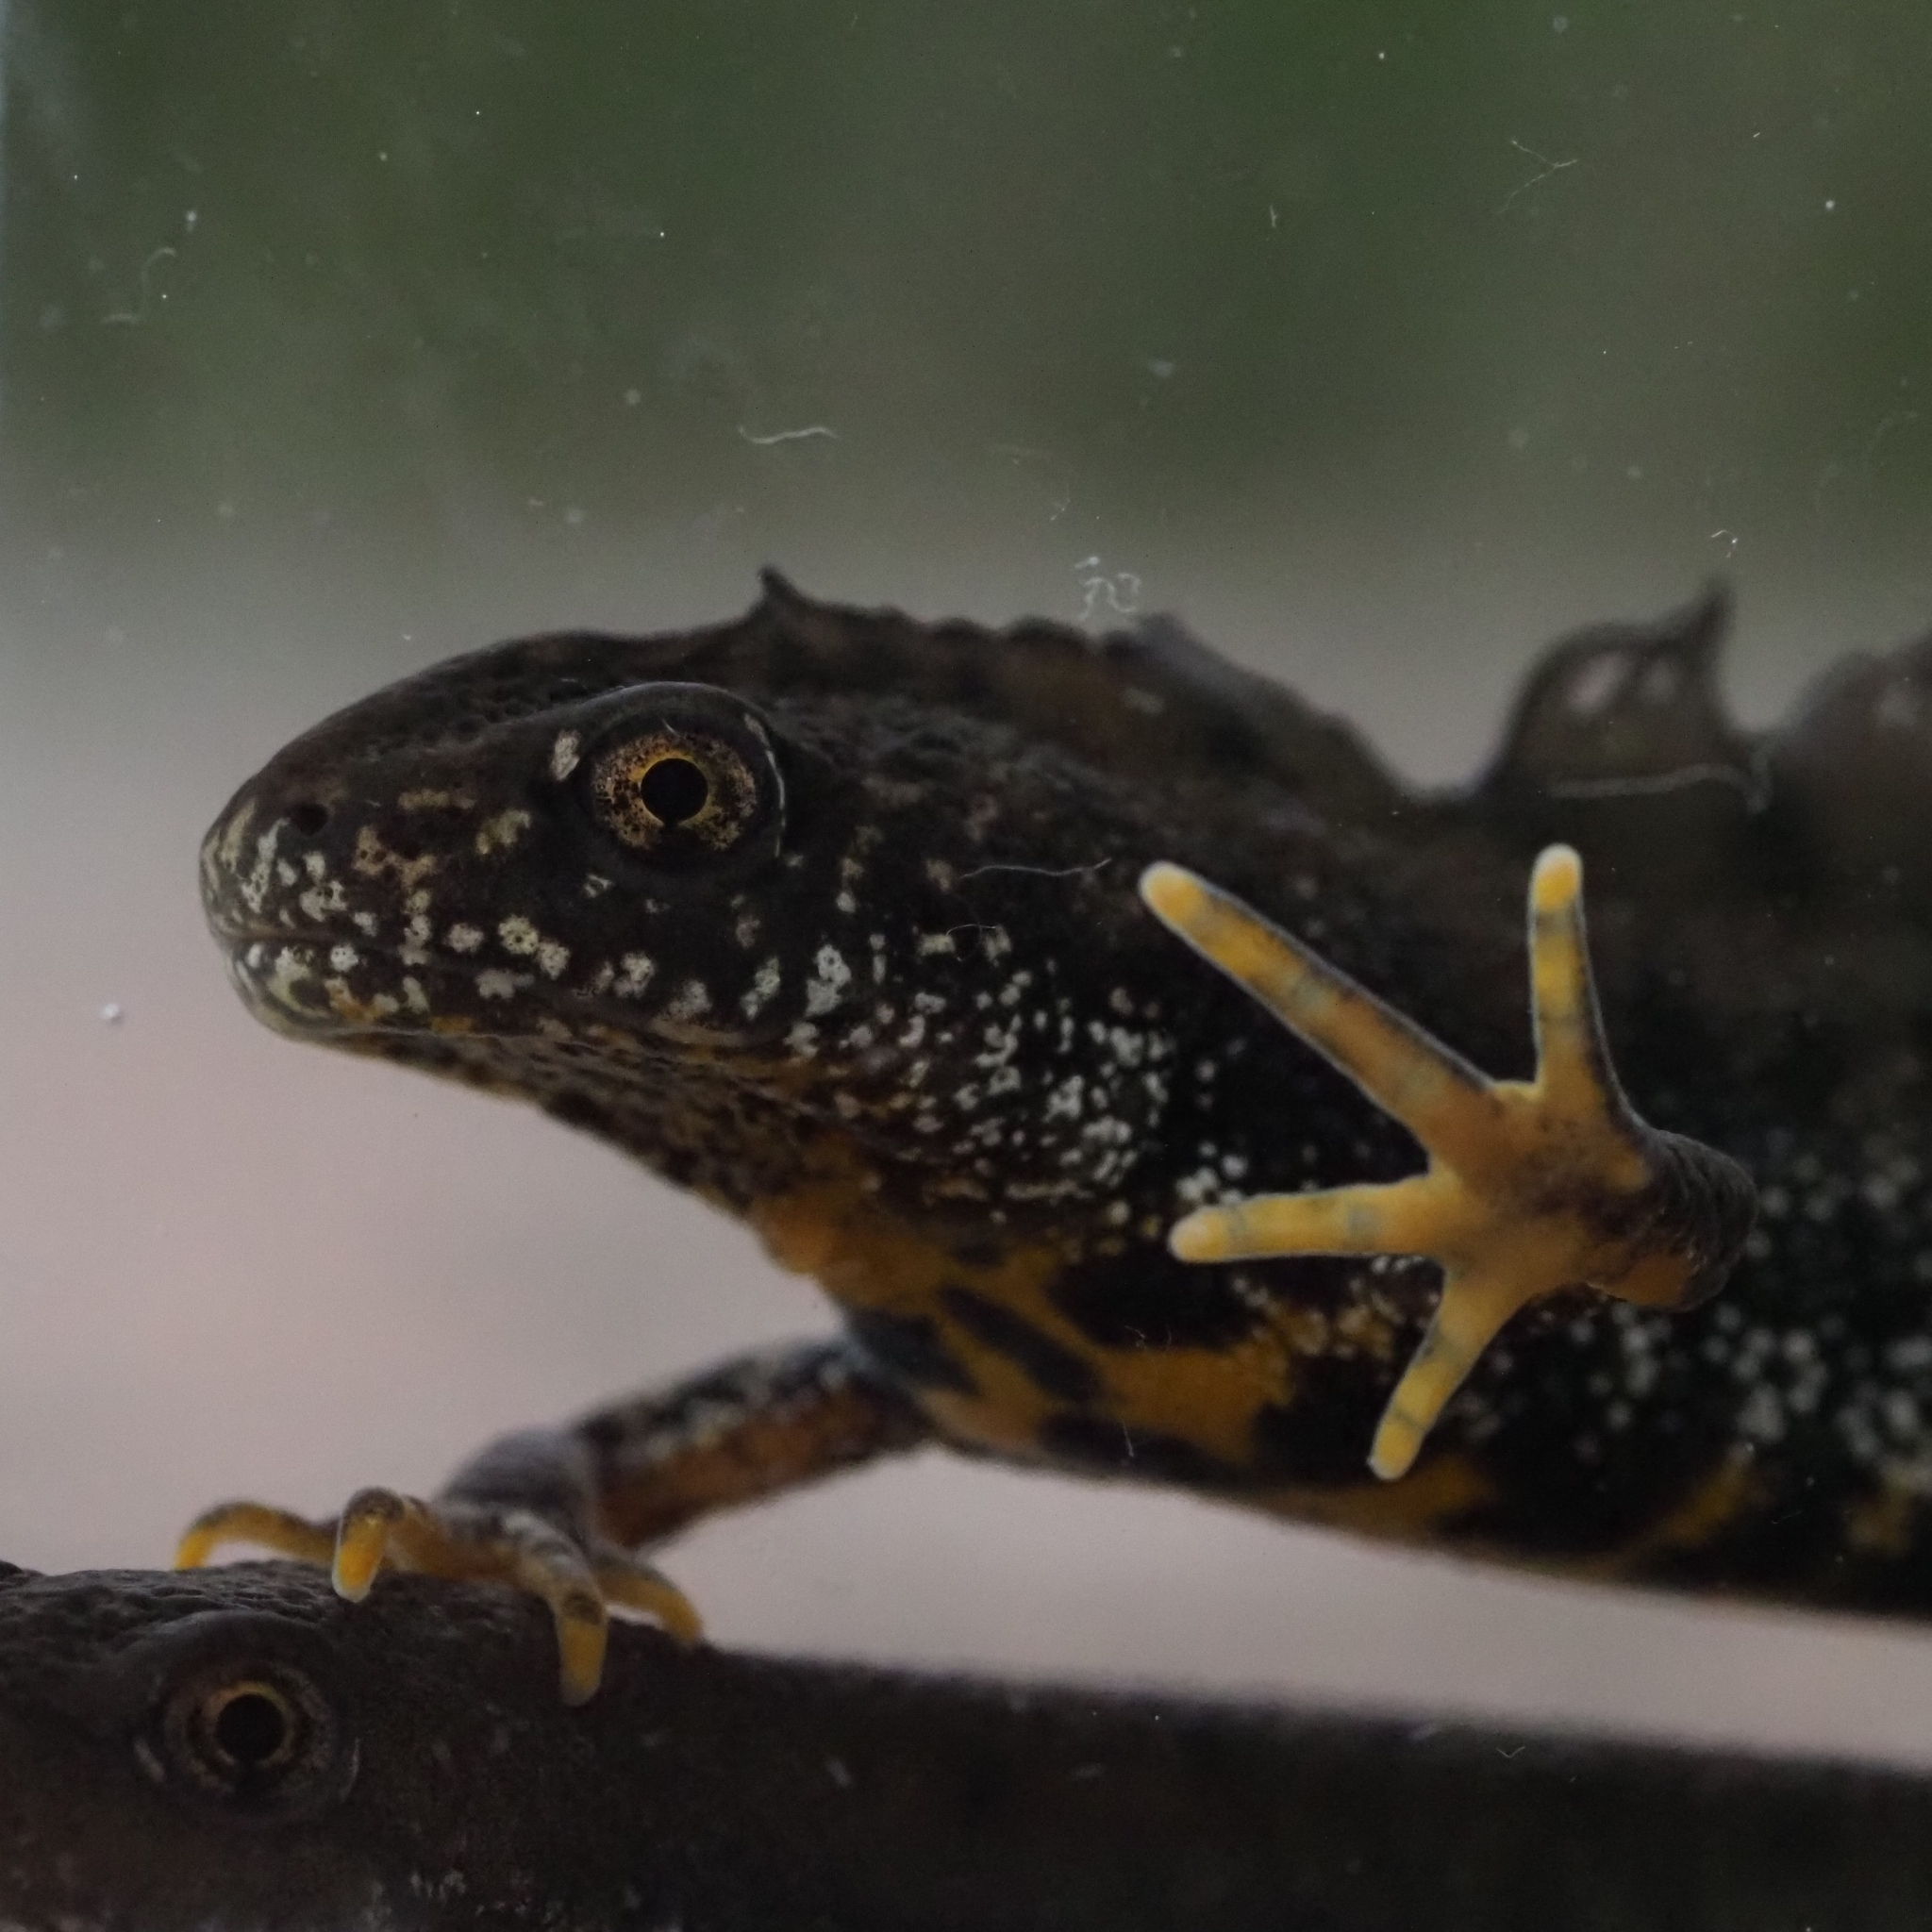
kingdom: Animalia
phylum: Chordata
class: Amphibia
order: Caudata
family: Salamandridae
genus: Triturus
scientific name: Triturus cristatus
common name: Crested newt
